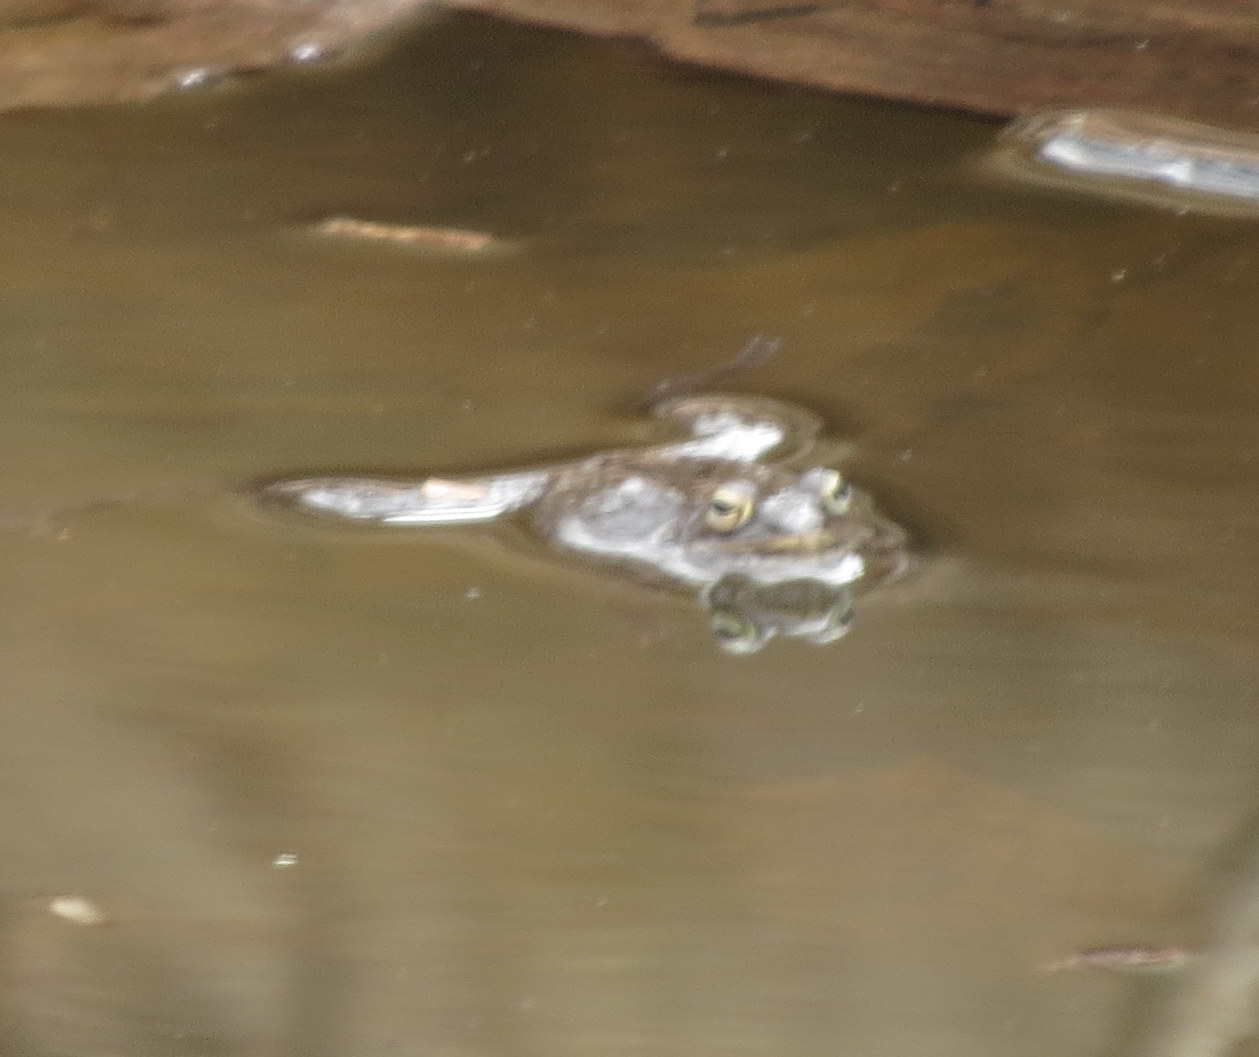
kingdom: Animalia
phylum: Chordata
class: Amphibia
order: Anura
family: Ranidae
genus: Lithobates
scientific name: Lithobates sylvaticus
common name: Wood frog
